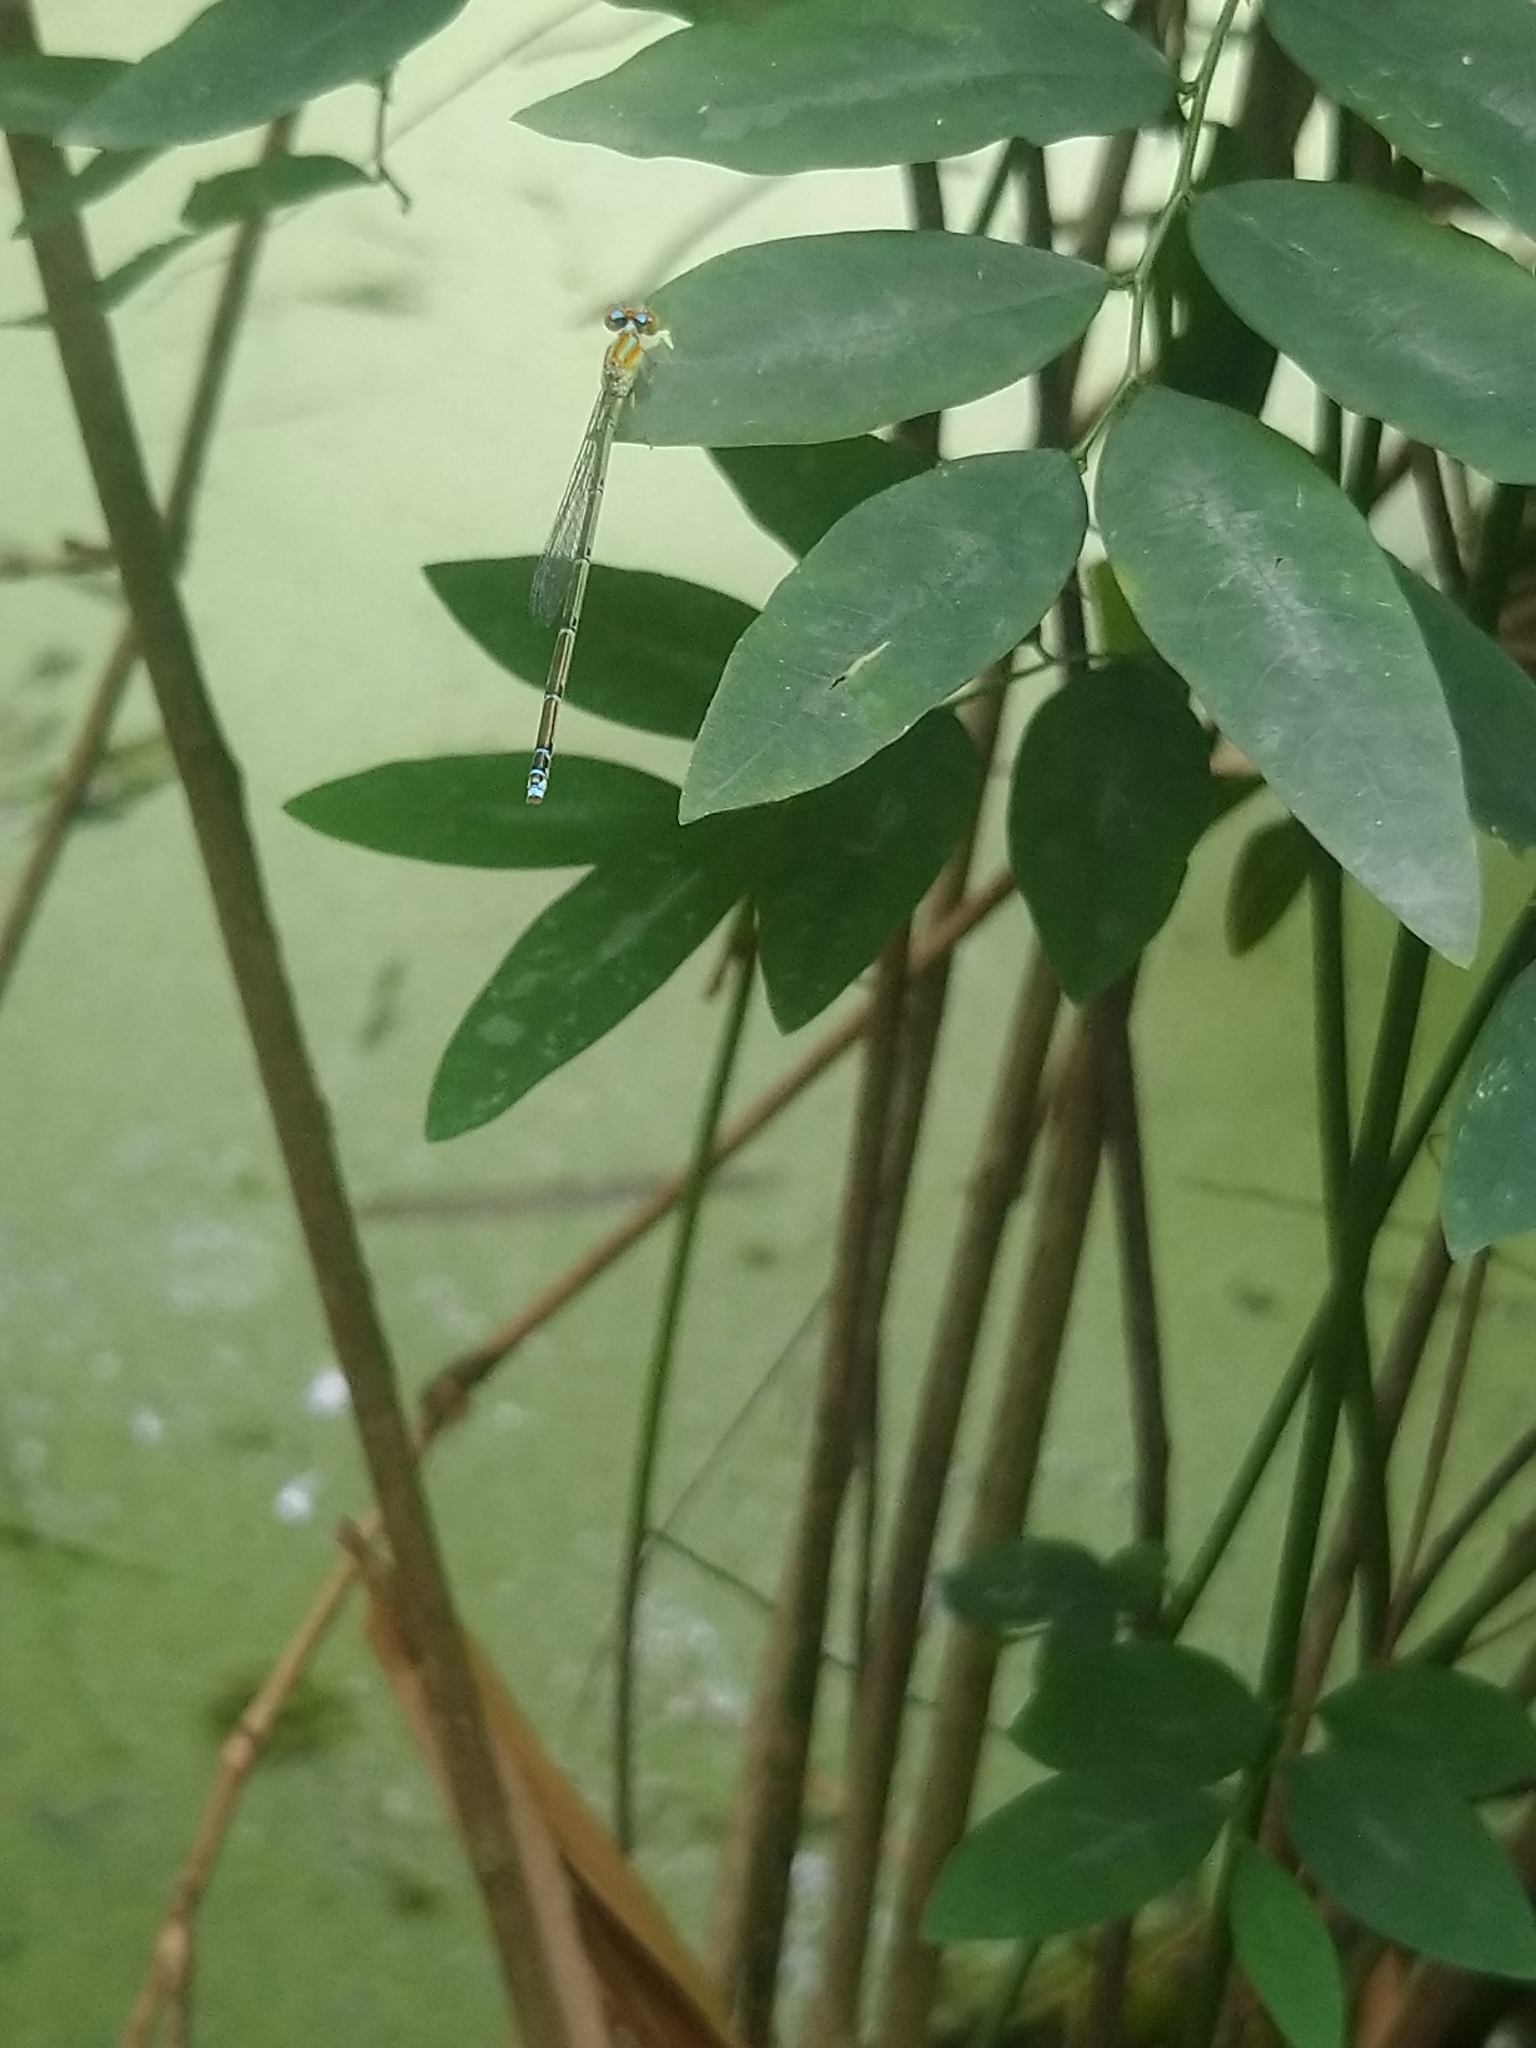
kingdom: Animalia
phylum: Arthropoda
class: Insecta
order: Odonata
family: Coenagrionidae
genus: Pseudagrion
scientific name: Pseudagrion microcephalum
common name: Blue riverdamsel
